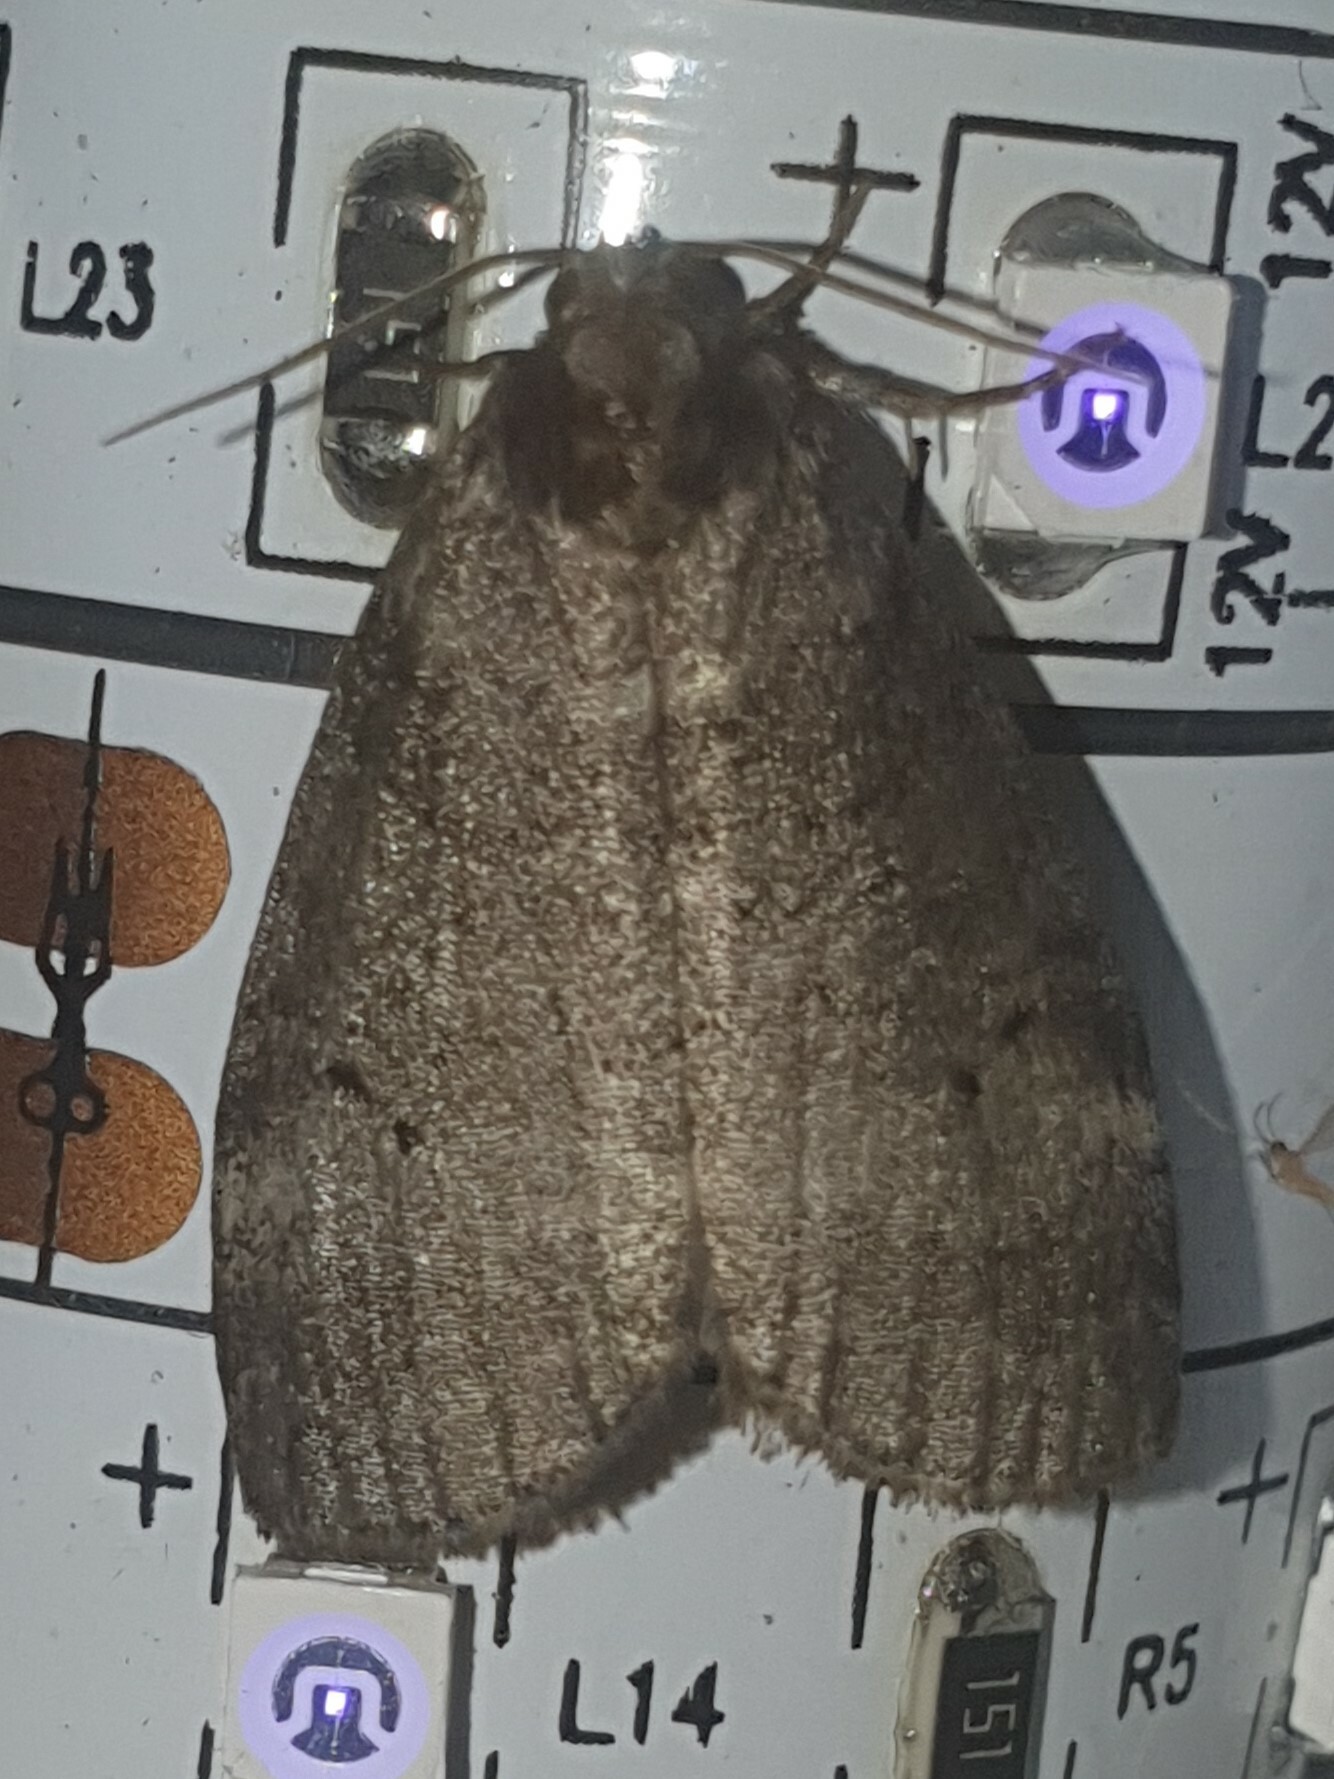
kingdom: Animalia
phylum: Arthropoda
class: Insecta
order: Lepidoptera
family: Drepanidae
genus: Ochropacha
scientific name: Ochropacha duplaris
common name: Common lutestring
